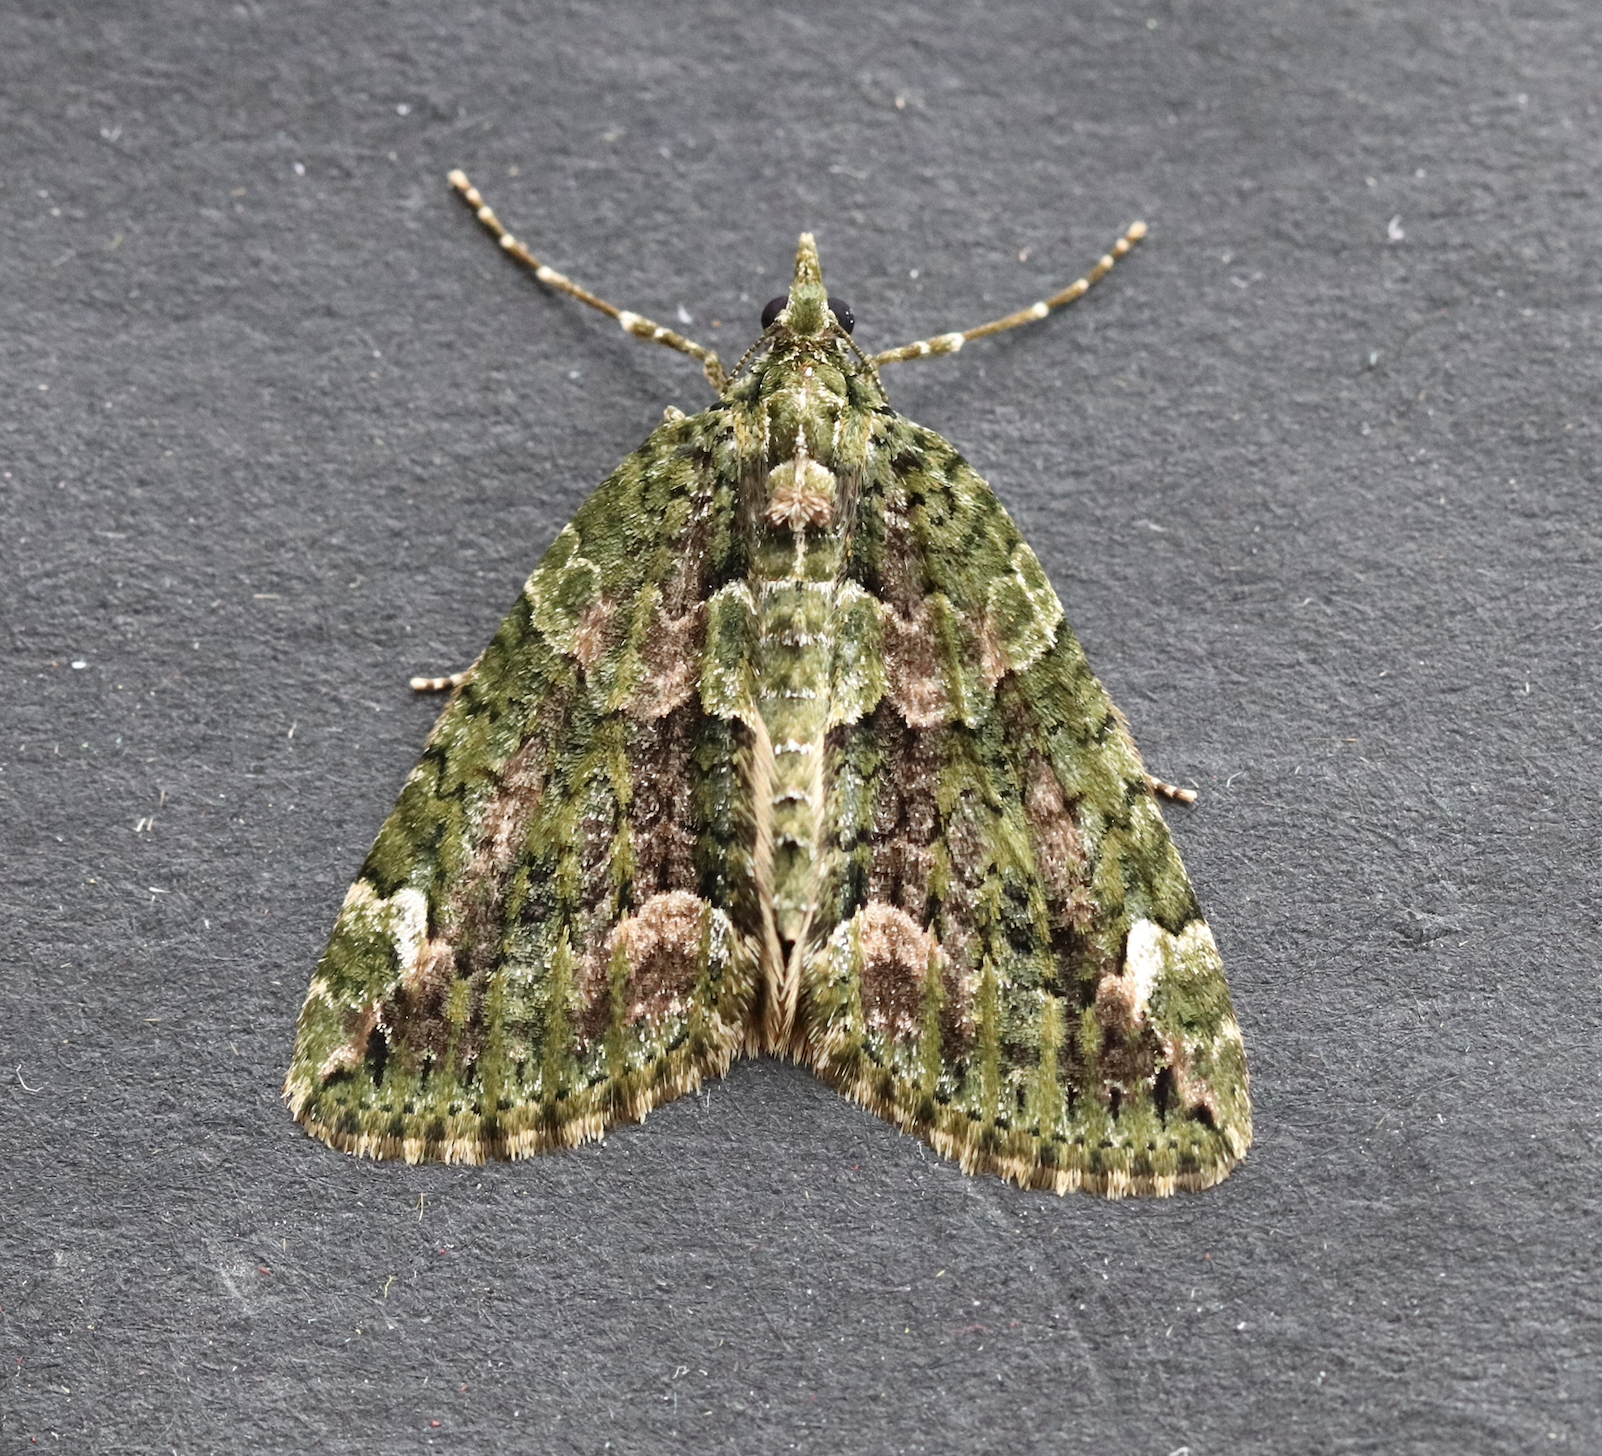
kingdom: Animalia
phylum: Arthropoda
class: Insecta
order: Lepidoptera
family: Geometridae
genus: Chloroclysta
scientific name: Chloroclysta siterata
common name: Red-green carpet
